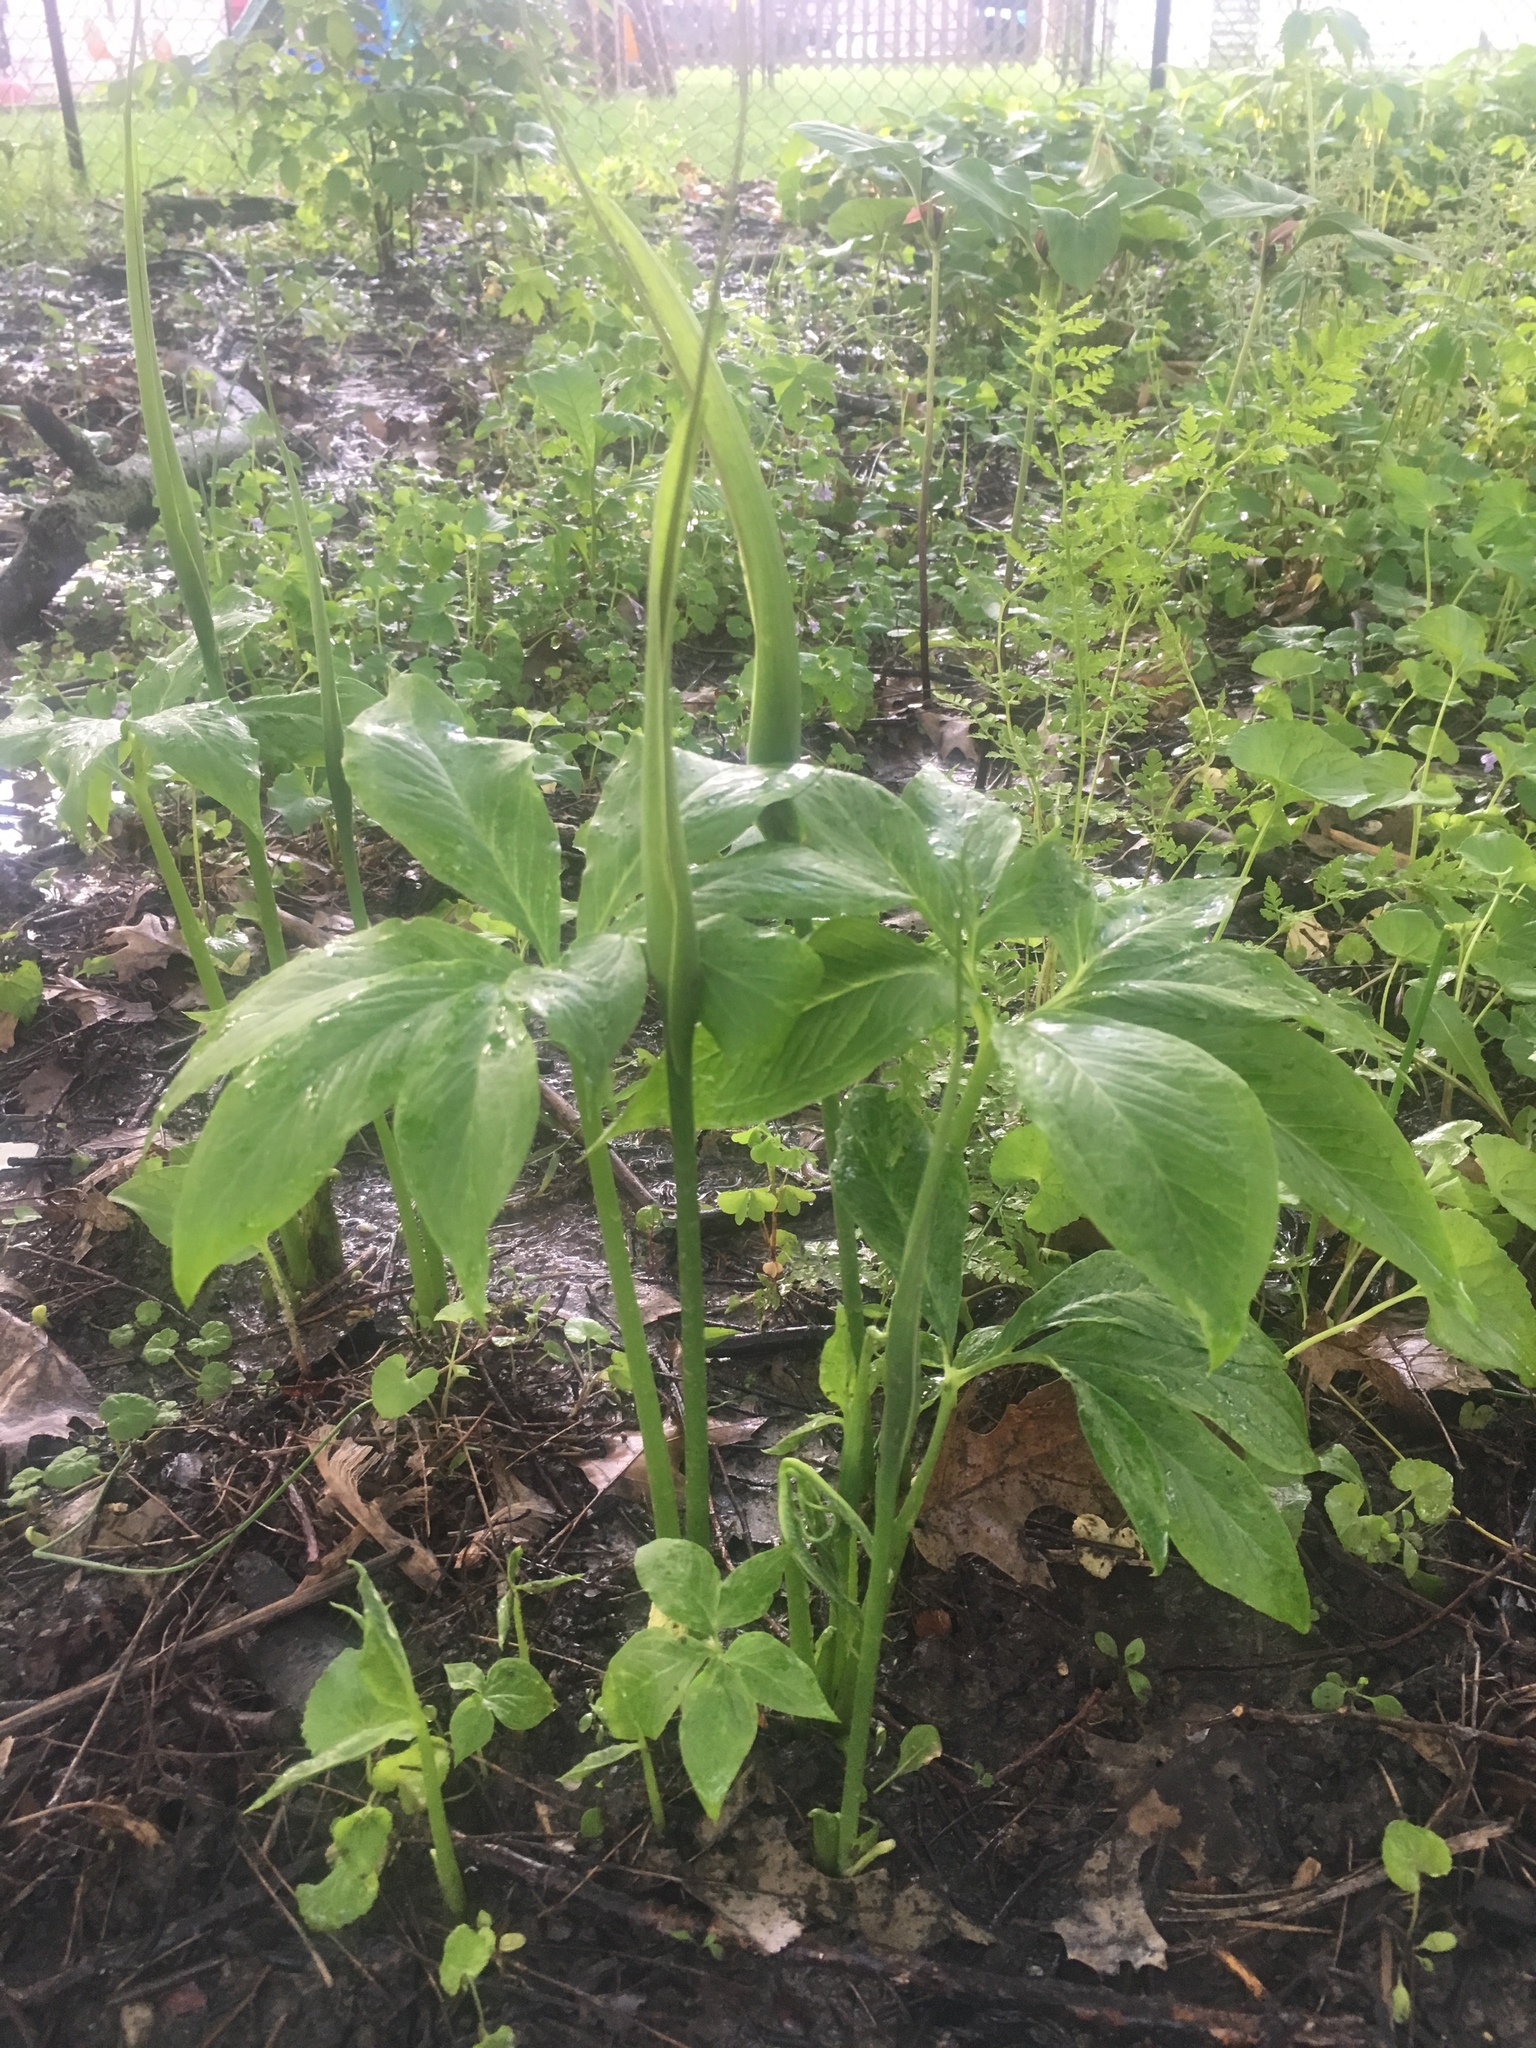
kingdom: Plantae
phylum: Tracheophyta
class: Liliopsida
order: Alismatales
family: Araceae
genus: Pinellia
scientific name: Pinellia pedatisecta
